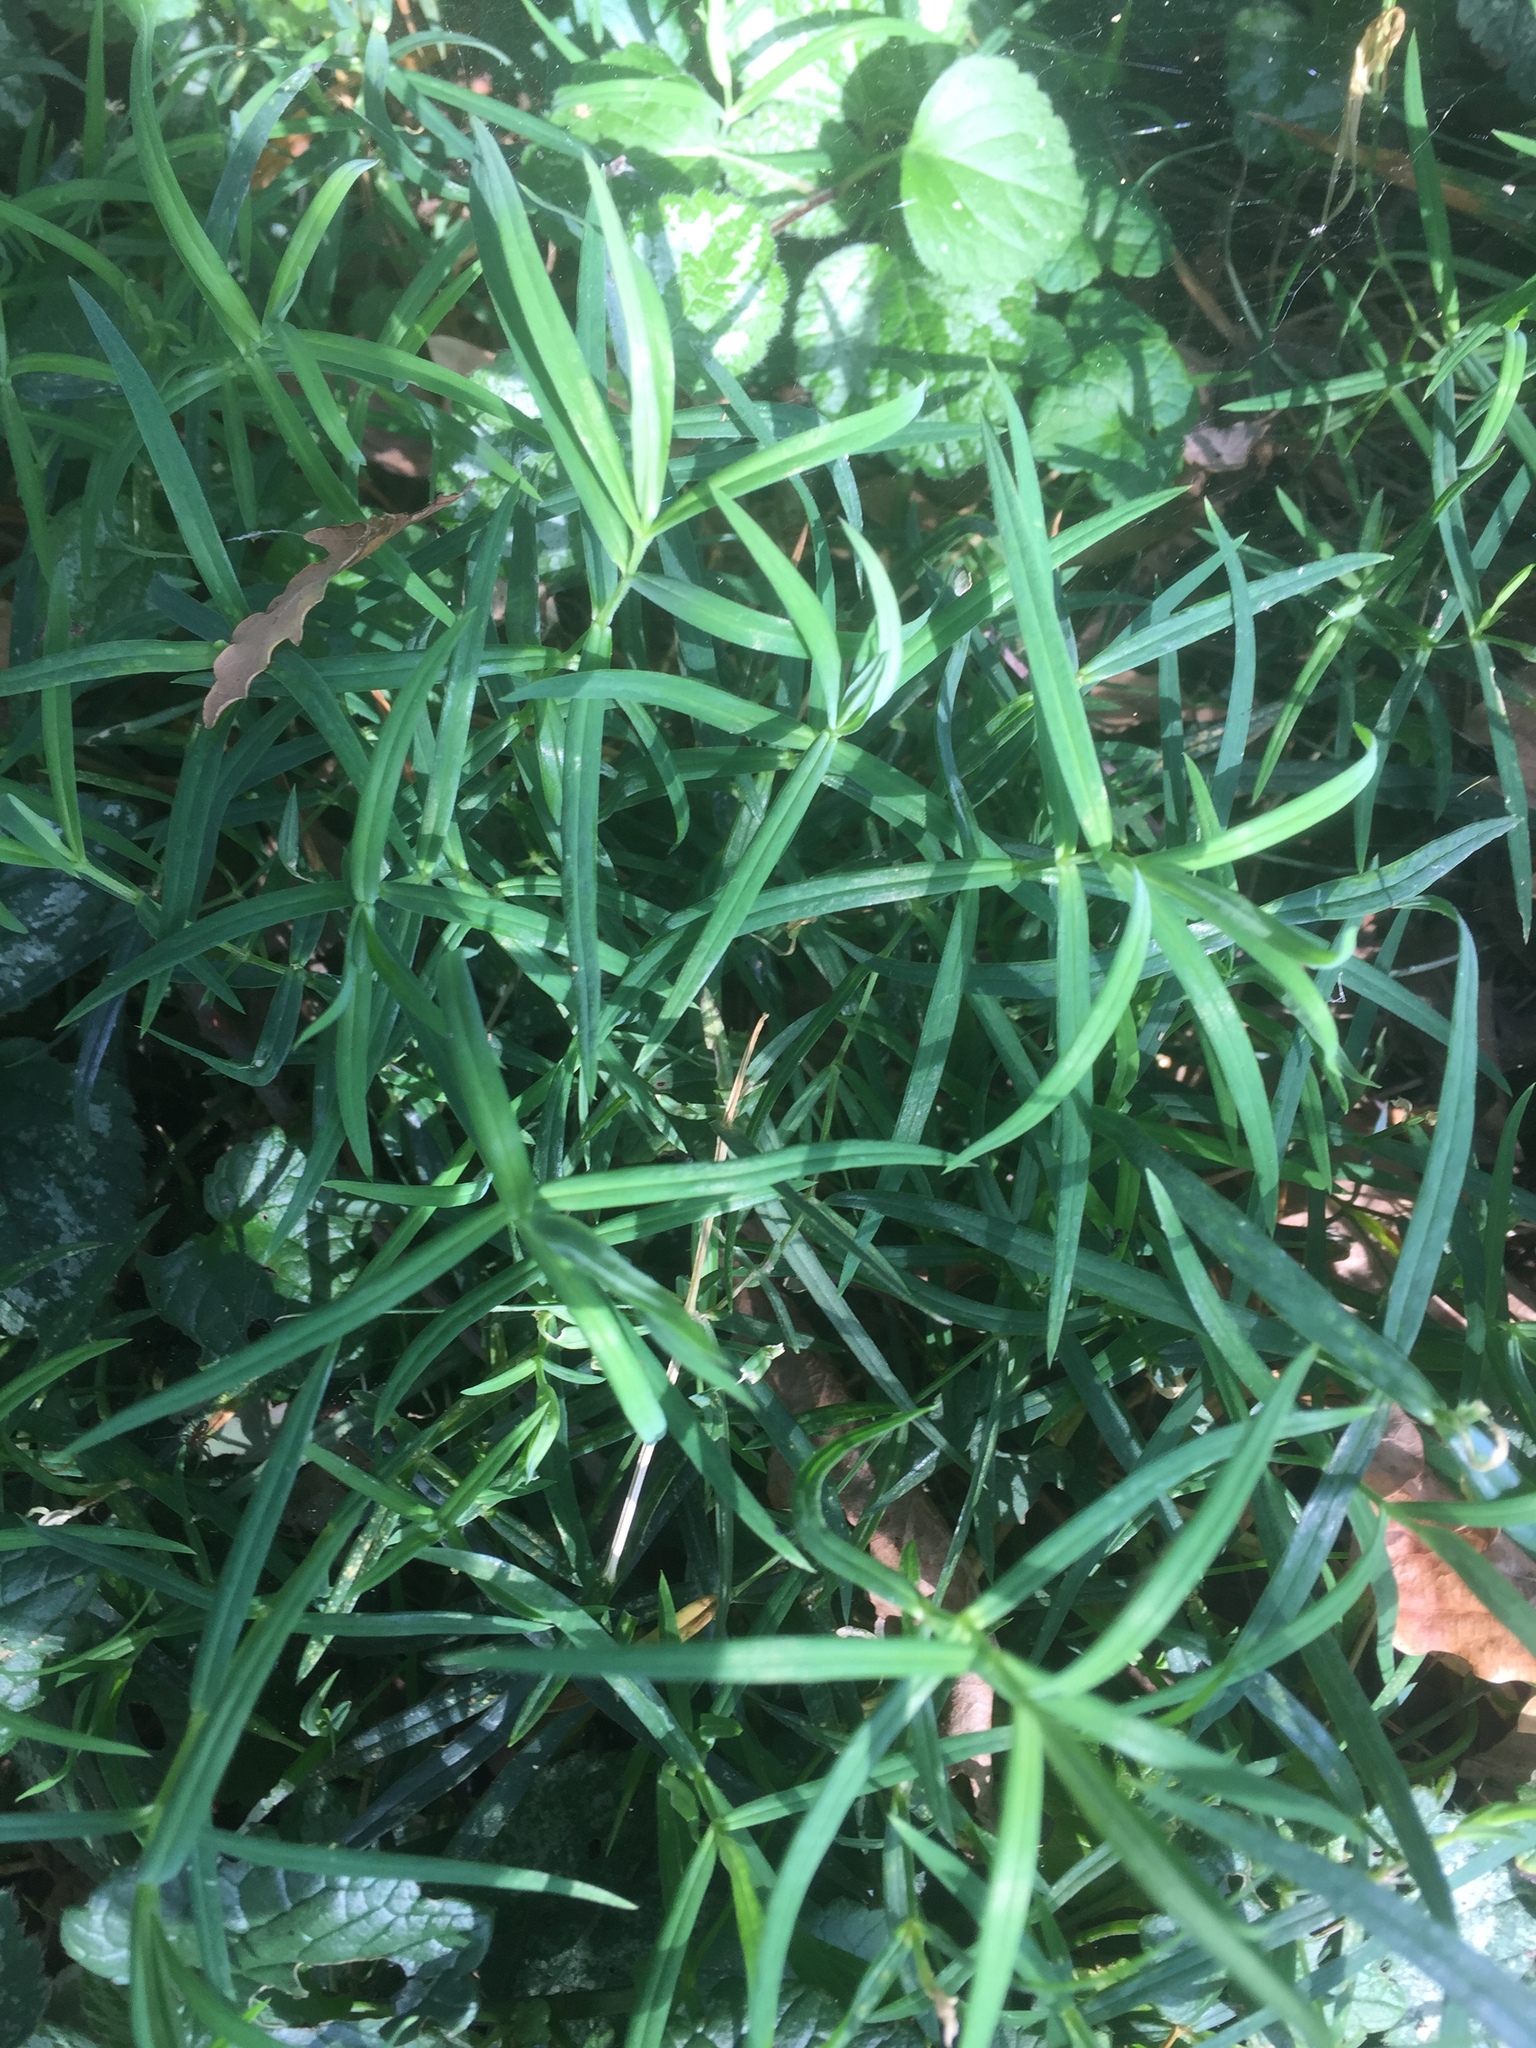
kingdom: Plantae
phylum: Tracheophyta
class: Magnoliopsida
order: Caryophyllales
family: Caryophyllaceae
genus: Rabelera
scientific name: Rabelera holostea
